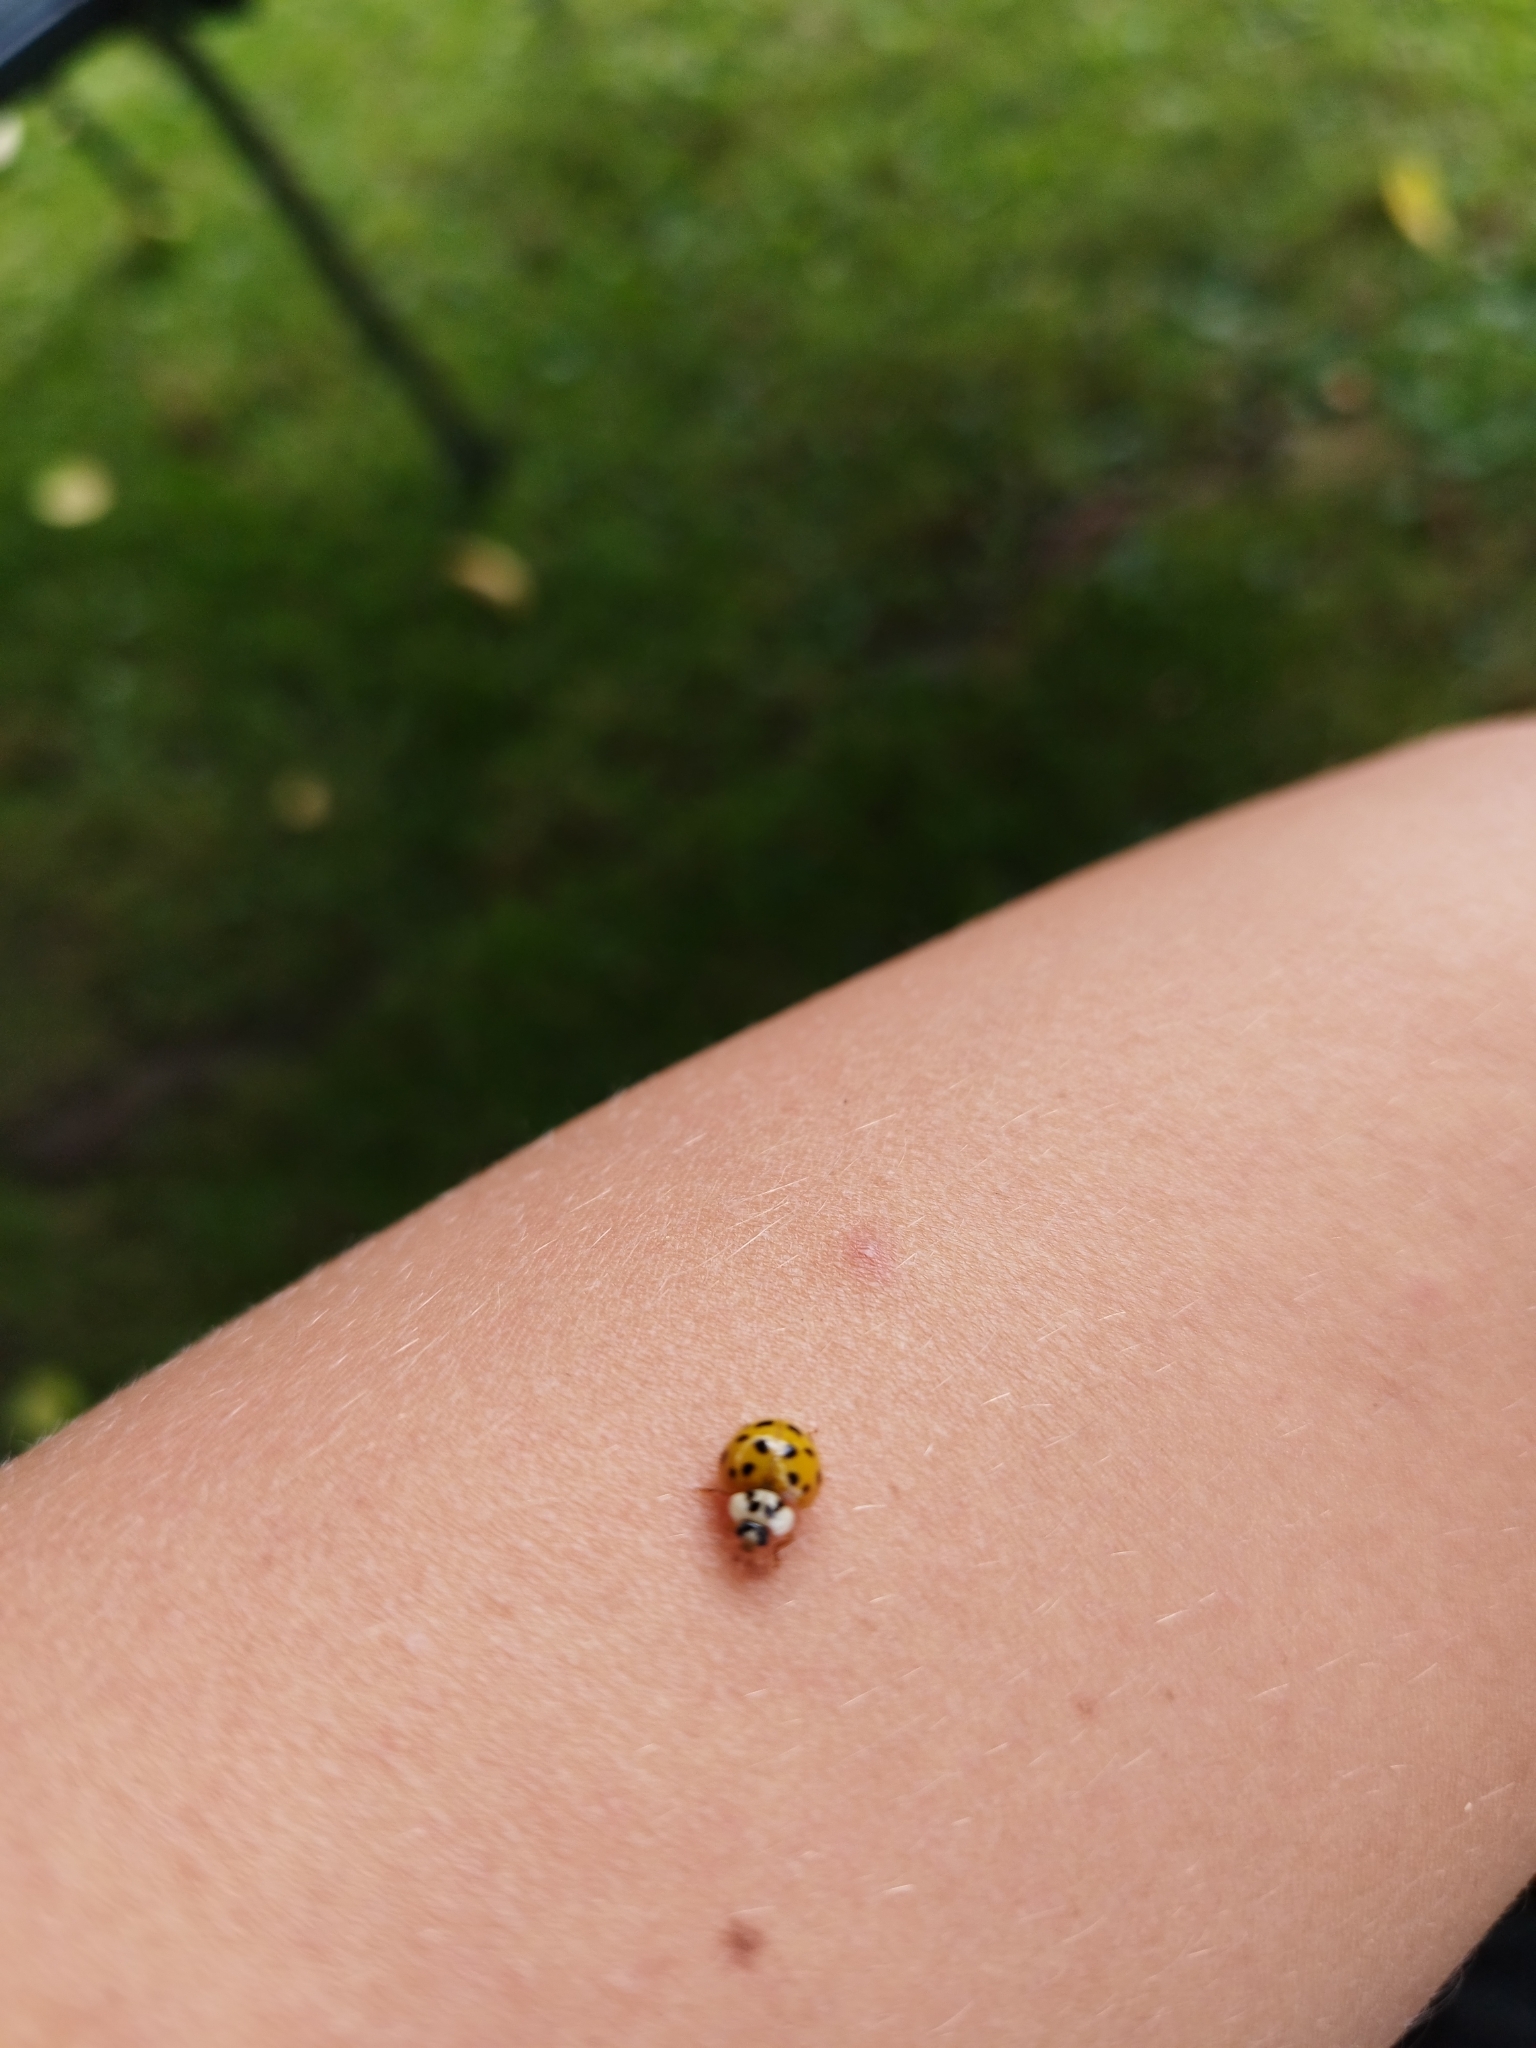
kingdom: Animalia
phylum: Arthropoda
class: Insecta
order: Coleoptera
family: Coccinellidae
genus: Harmonia
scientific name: Harmonia axyridis
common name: Harlequin ladybird
